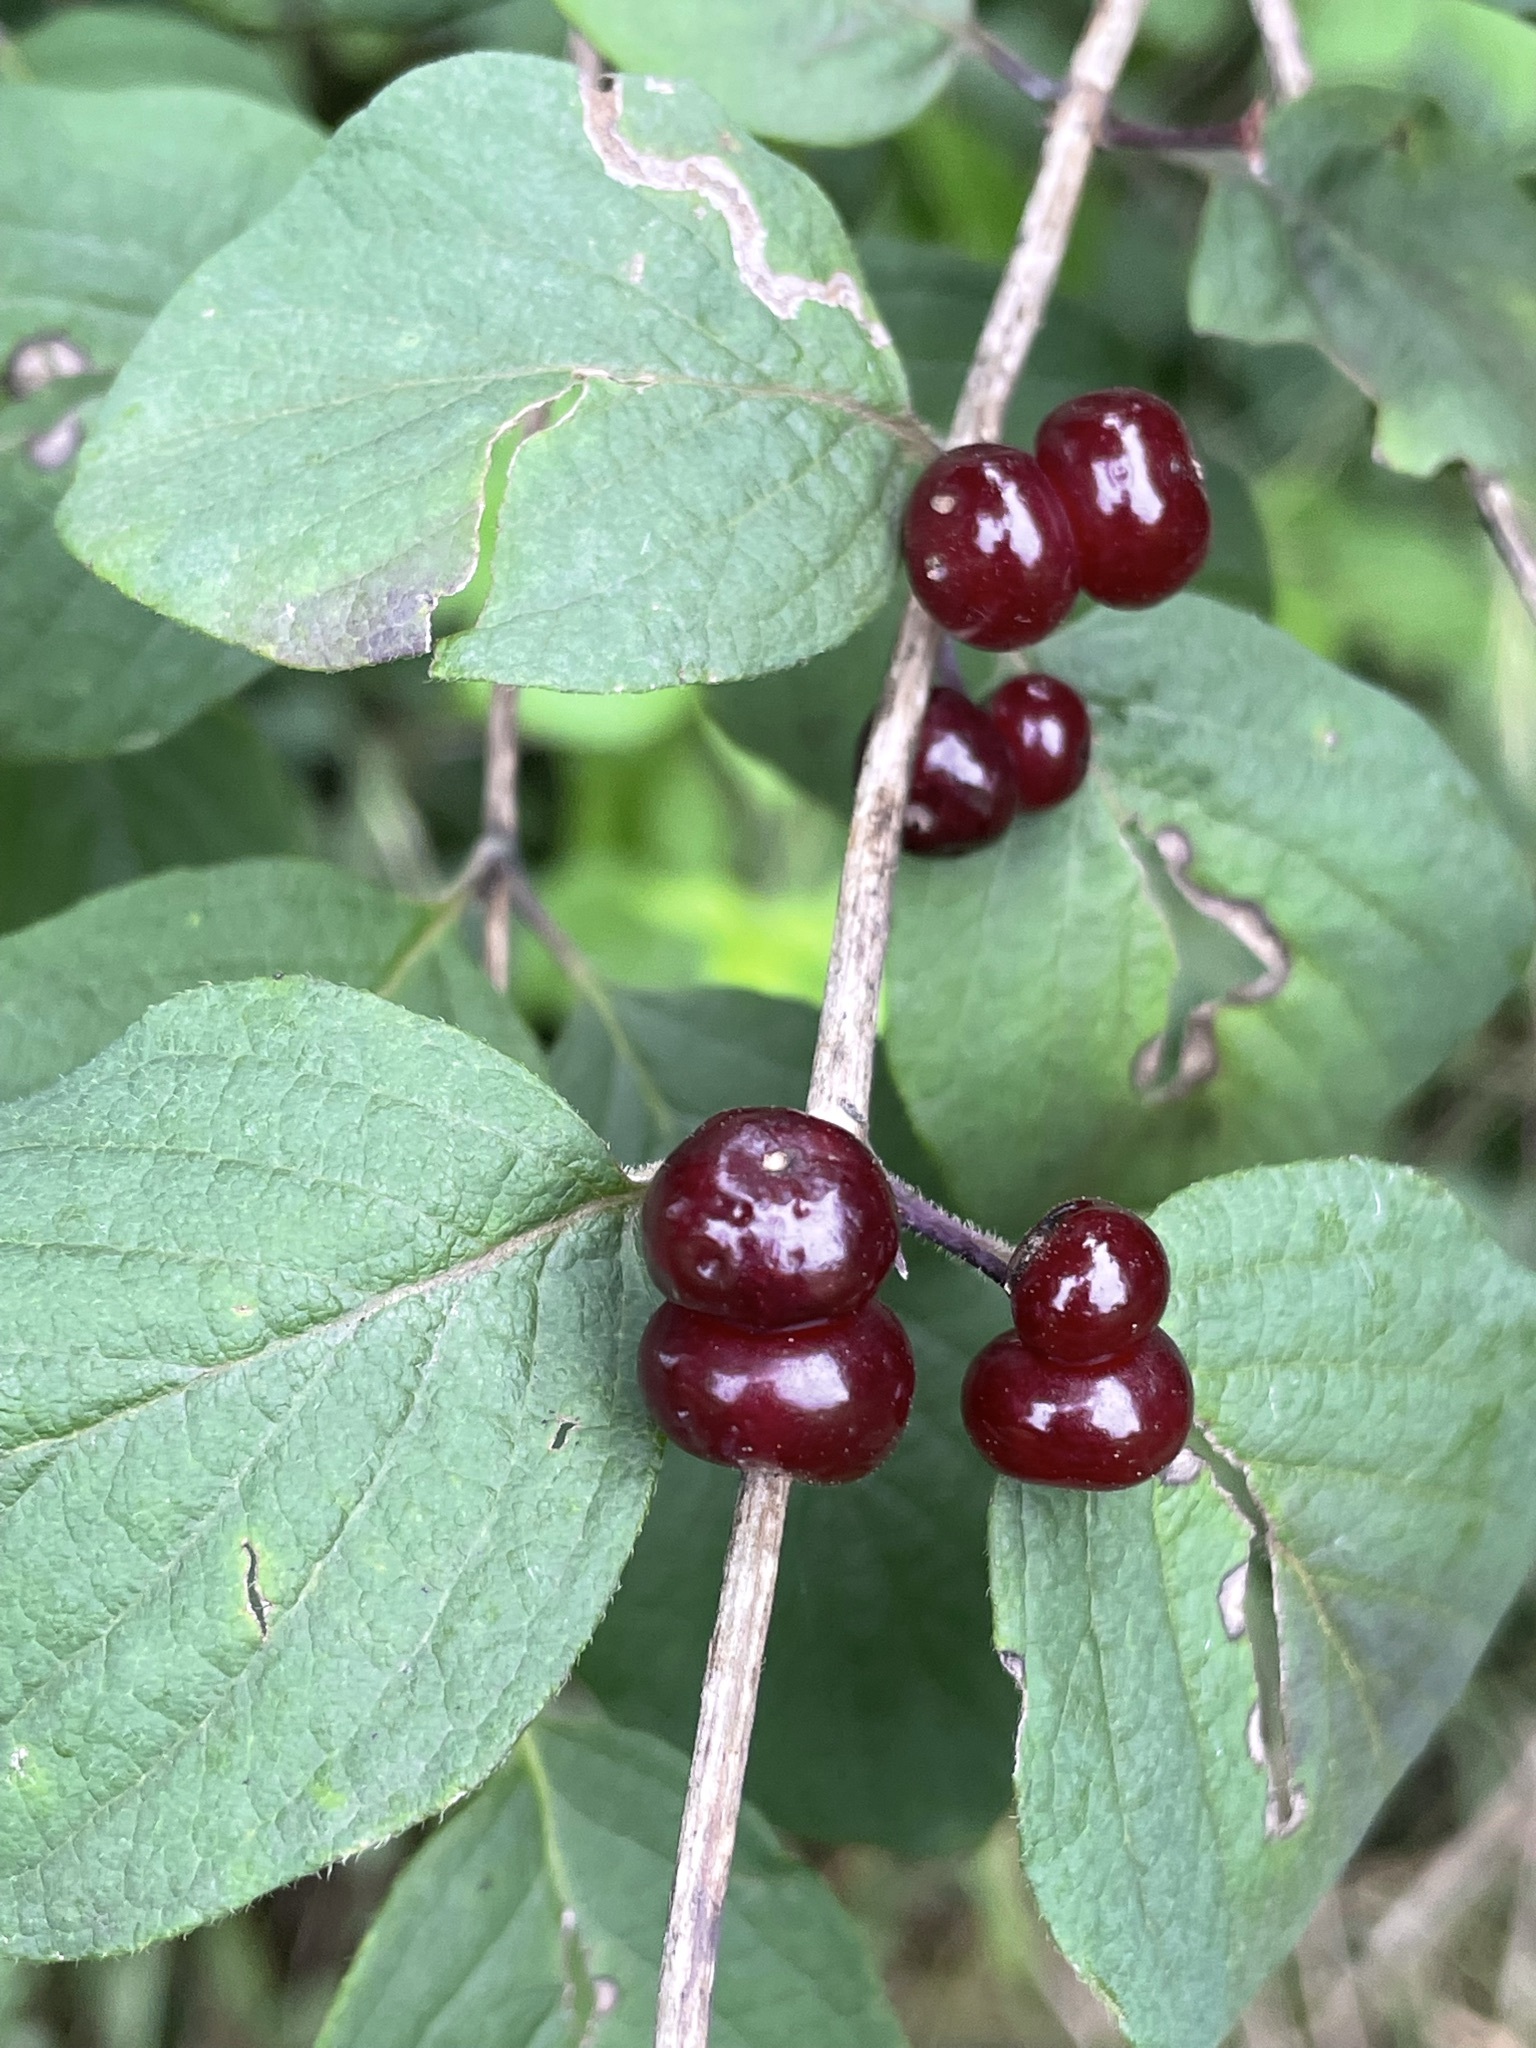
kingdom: Plantae
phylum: Tracheophyta
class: Magnoliopsida
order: Dipsacales
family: Caprifoliaceae
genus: Lonicera
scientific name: Lonicera xylosteum
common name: Fly honeysuckle
